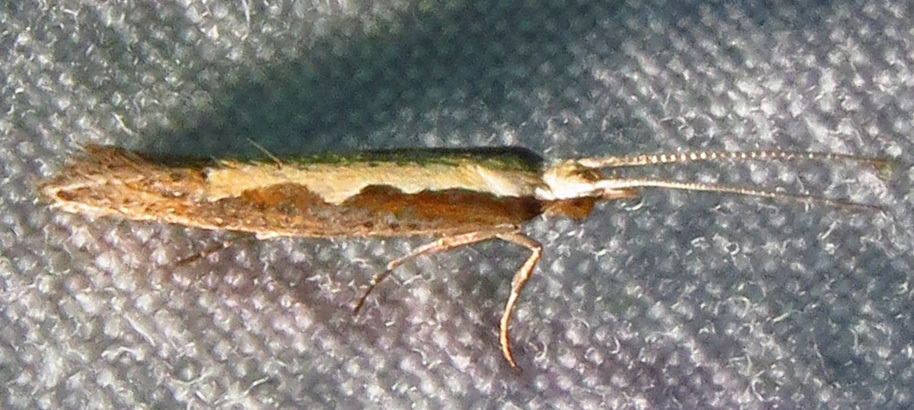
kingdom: Animalia
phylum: Arthropoda
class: Insecta
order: Lepidoptera
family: Plutellidae
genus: Plutella
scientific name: Plutella xylostella
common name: Diamond-back moth
